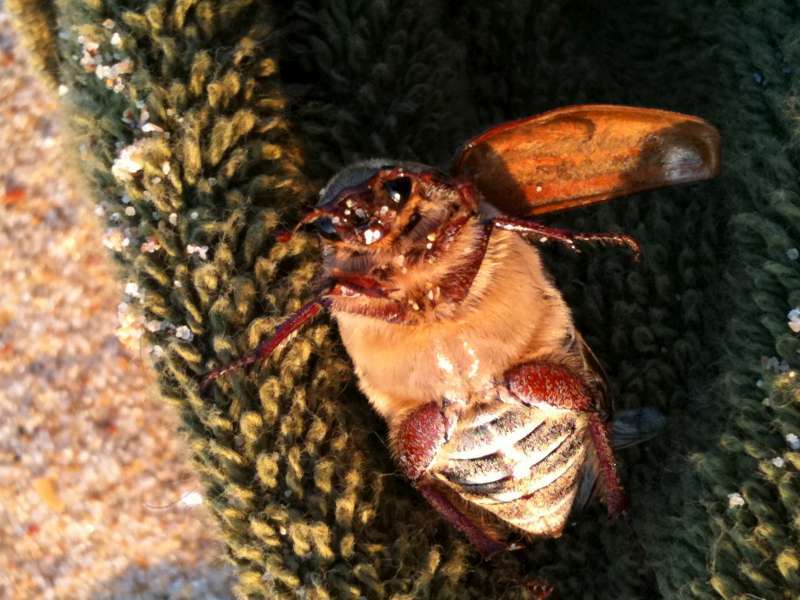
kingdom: Animalia
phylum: Arthropoda
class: Insecta
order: Coleoptera
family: Scarabaeidae
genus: Anoxia
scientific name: Anoxia australis
